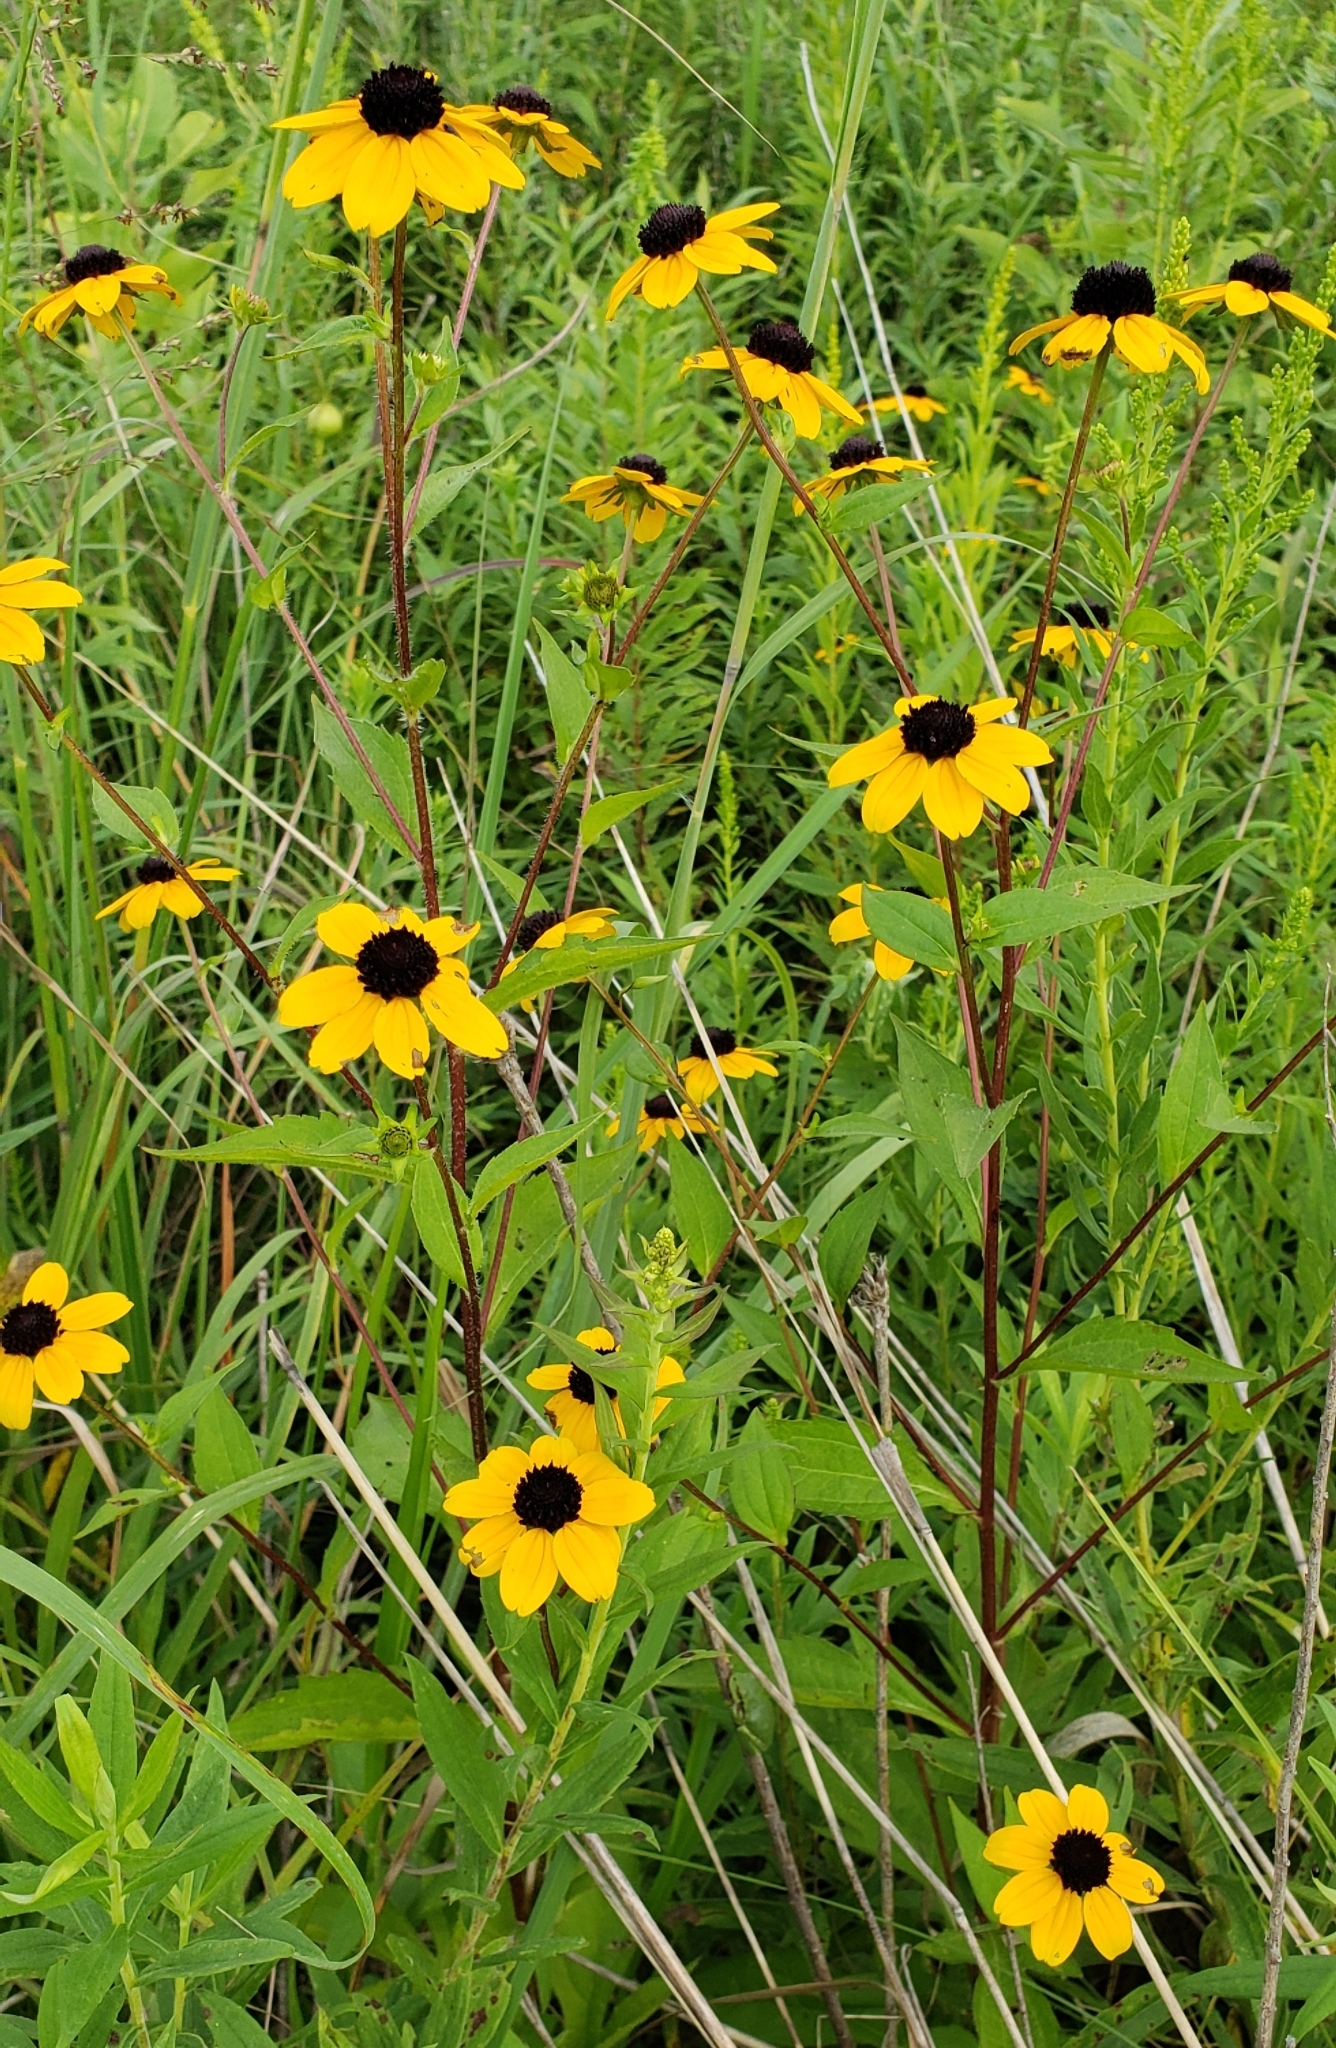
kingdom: Plantae
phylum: Tracheophyta
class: Magnoliopsida
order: Asterales
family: Asteraceae
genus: Rudbeckia
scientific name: Rudbeckia triloba
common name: Thin-leaved coneflower
